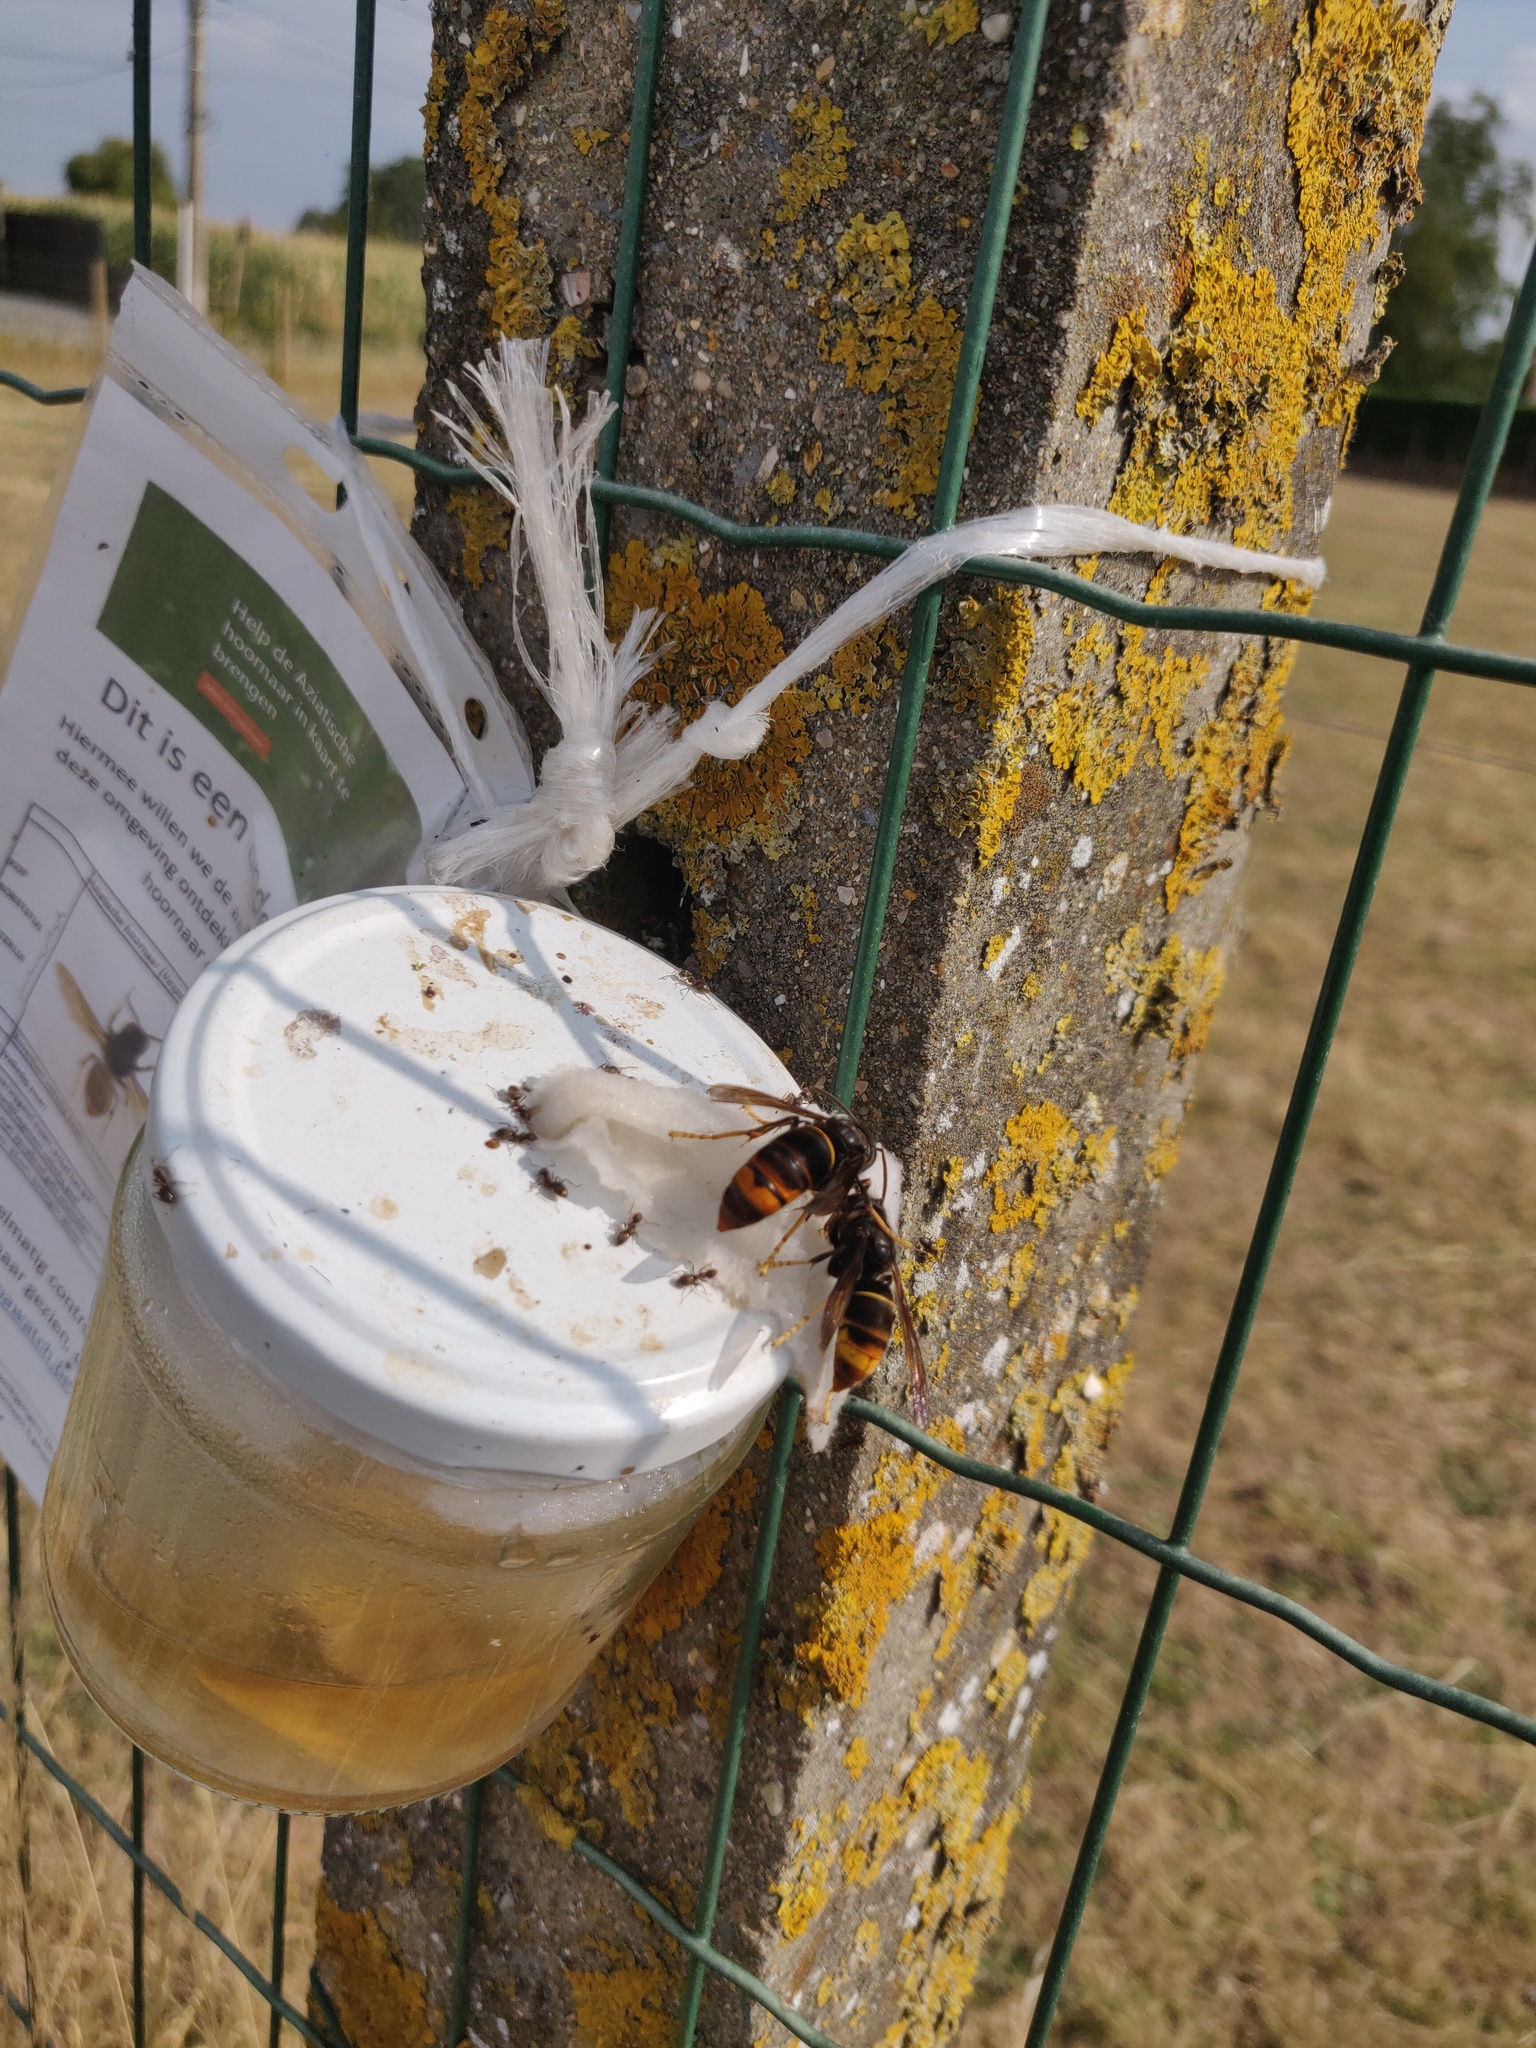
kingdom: Animalia
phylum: Arthropoda
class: Insecta
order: Hymenoptera
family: Vespidae
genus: Vespa
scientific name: Vespa velutina
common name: Asian hornet
